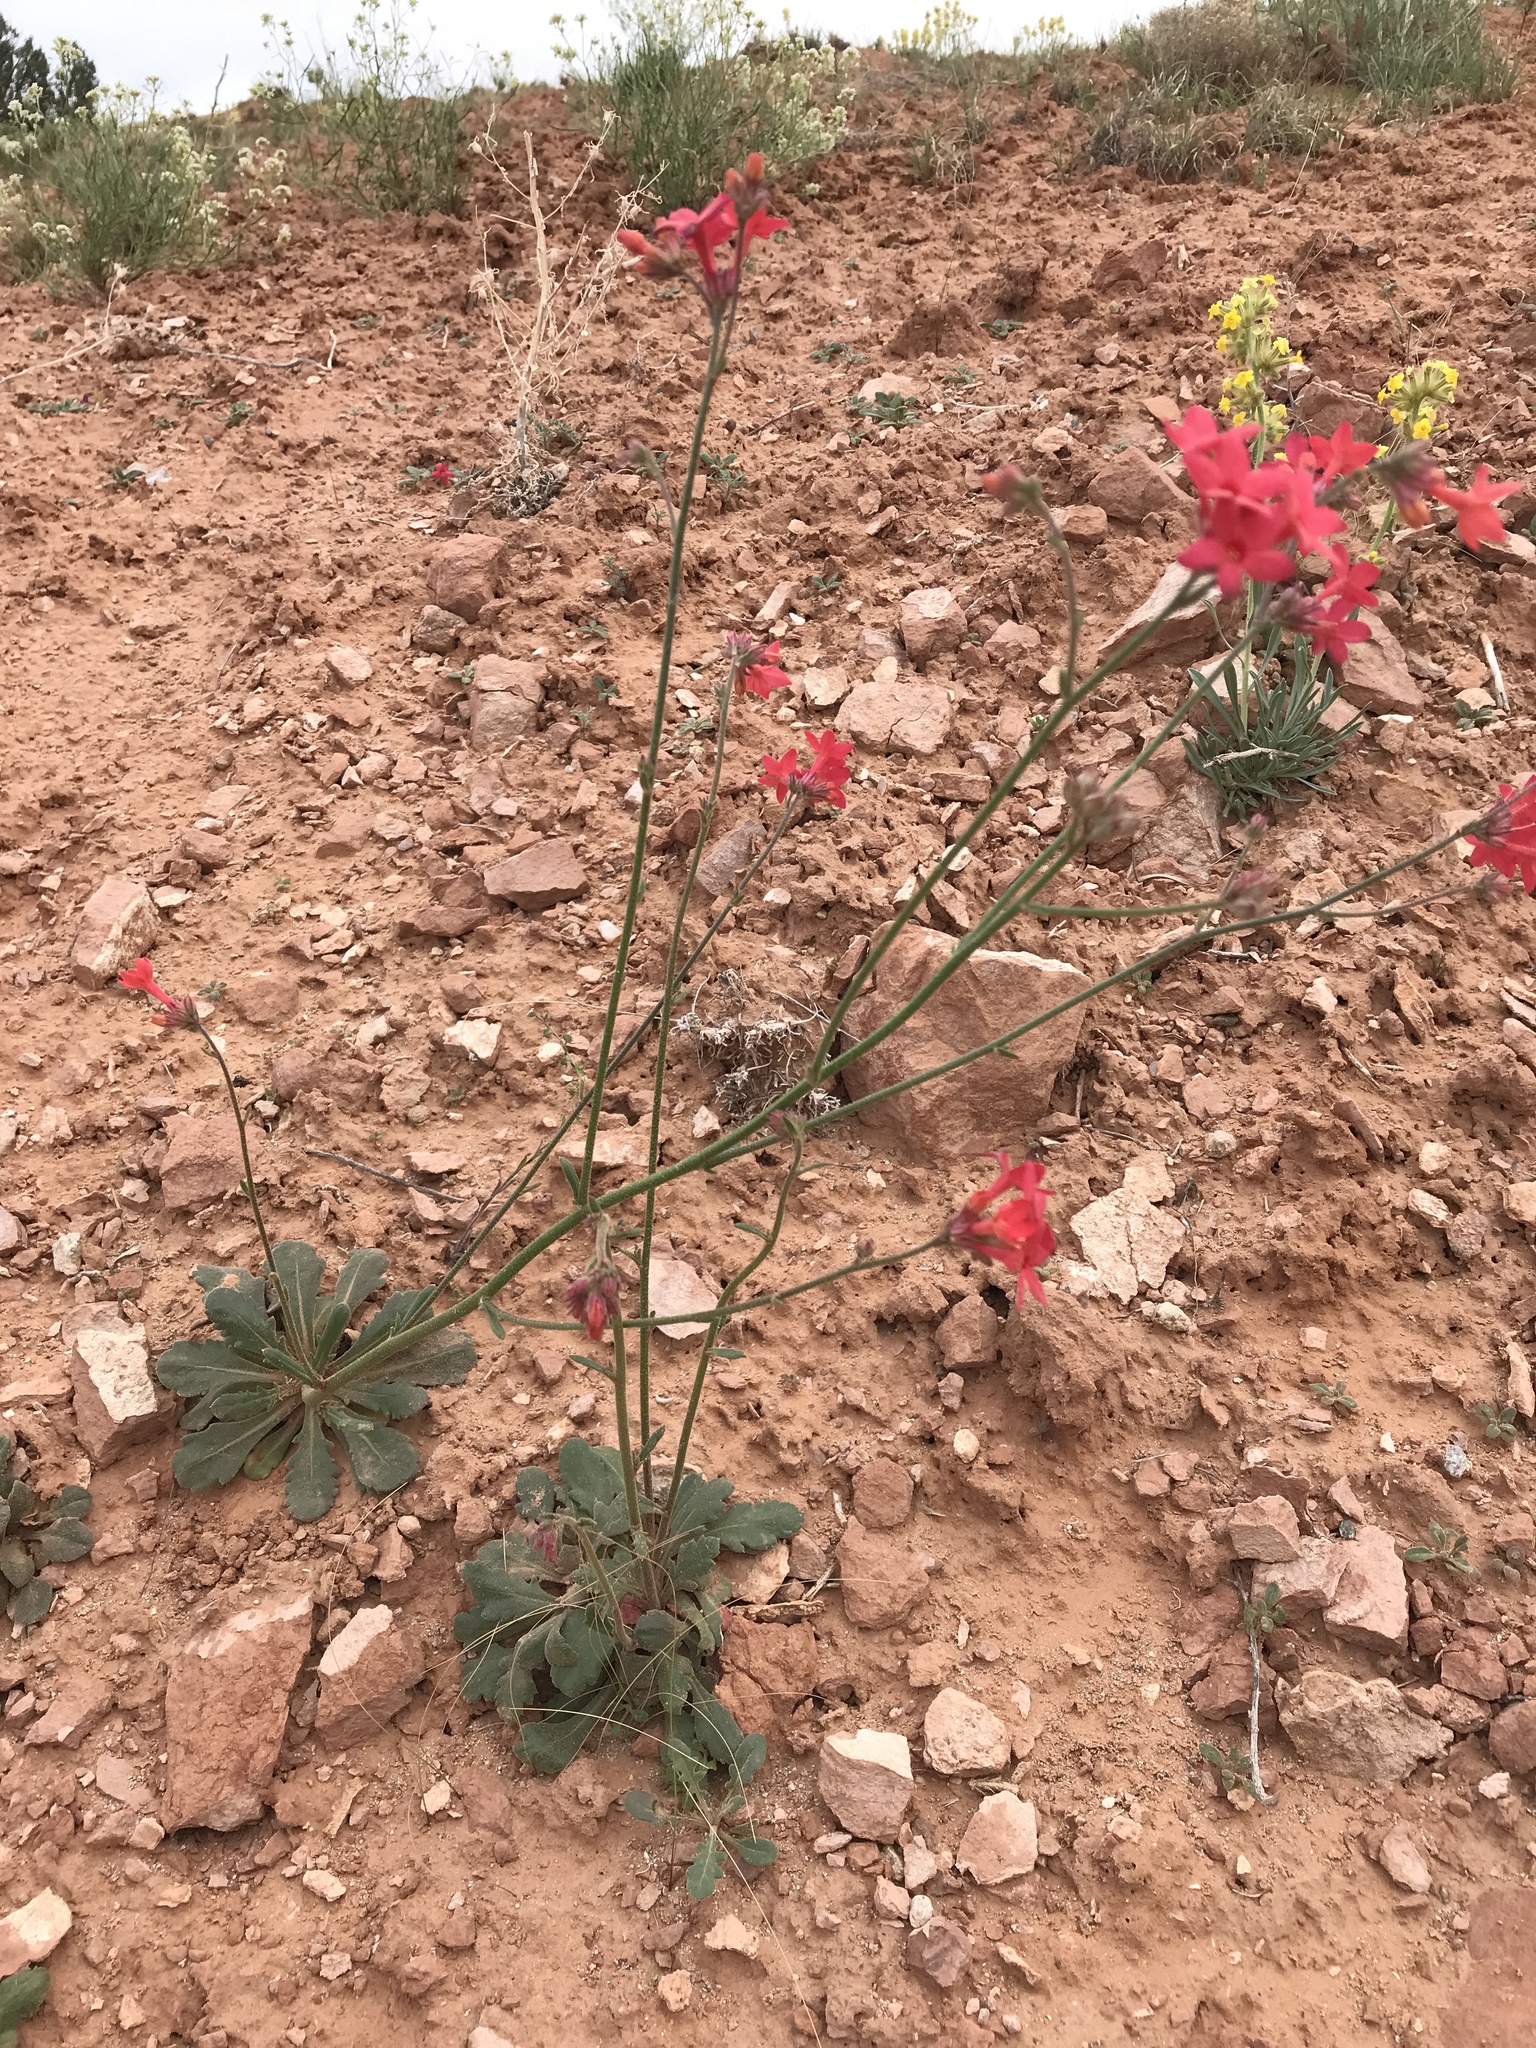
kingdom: Plantae
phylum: Tracheophyta
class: Magnoliopsida
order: Ericales
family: Polemoniaceae
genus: Aliciella
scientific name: Aliciella subnuda
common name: Coral gilia
